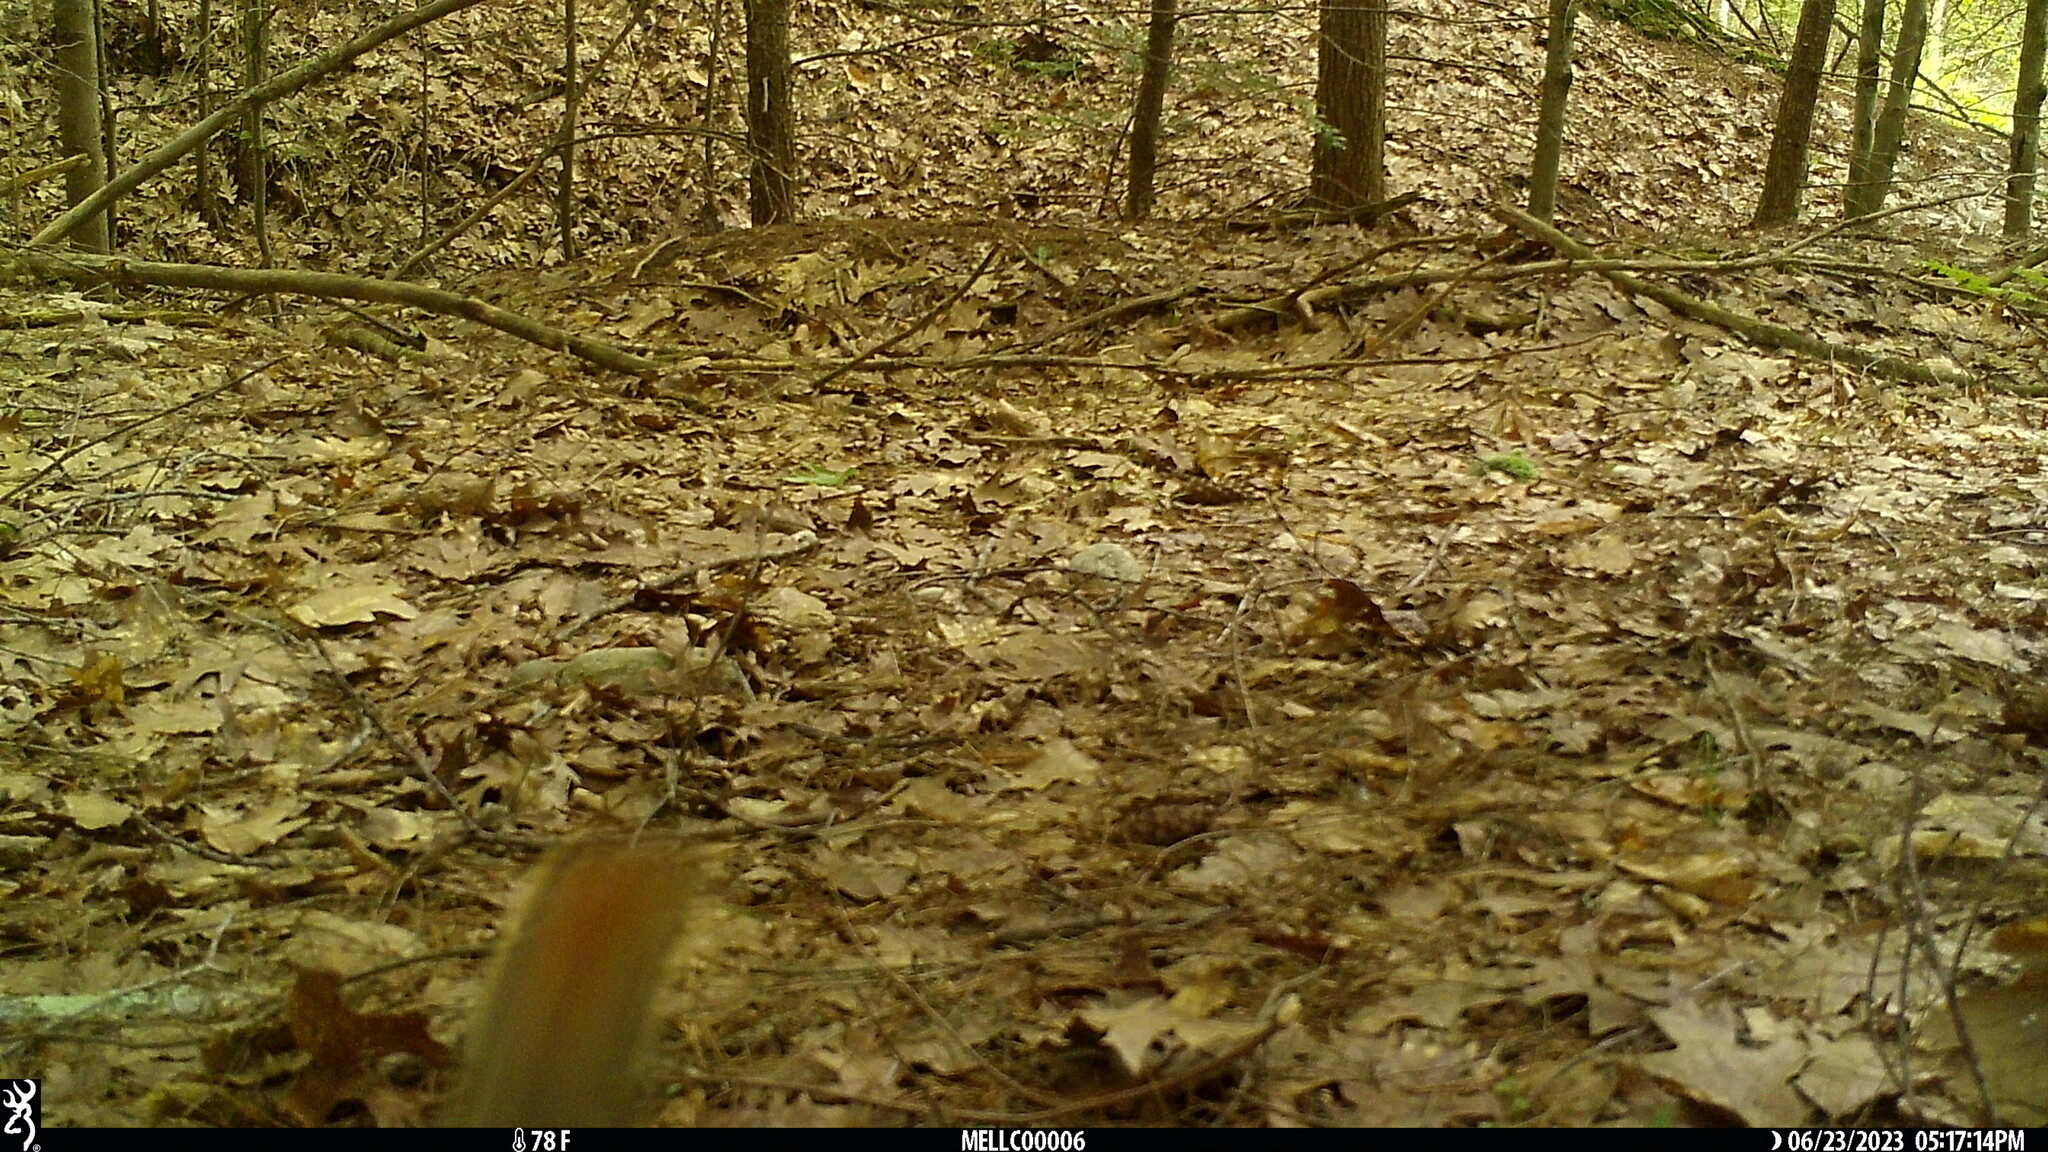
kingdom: Animalia
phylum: Chordata
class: Mammalia
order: Rodentia
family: Sciuridae
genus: Tamiasciurus
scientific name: Tamiasciurus hudsonicus
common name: Red squirrel
